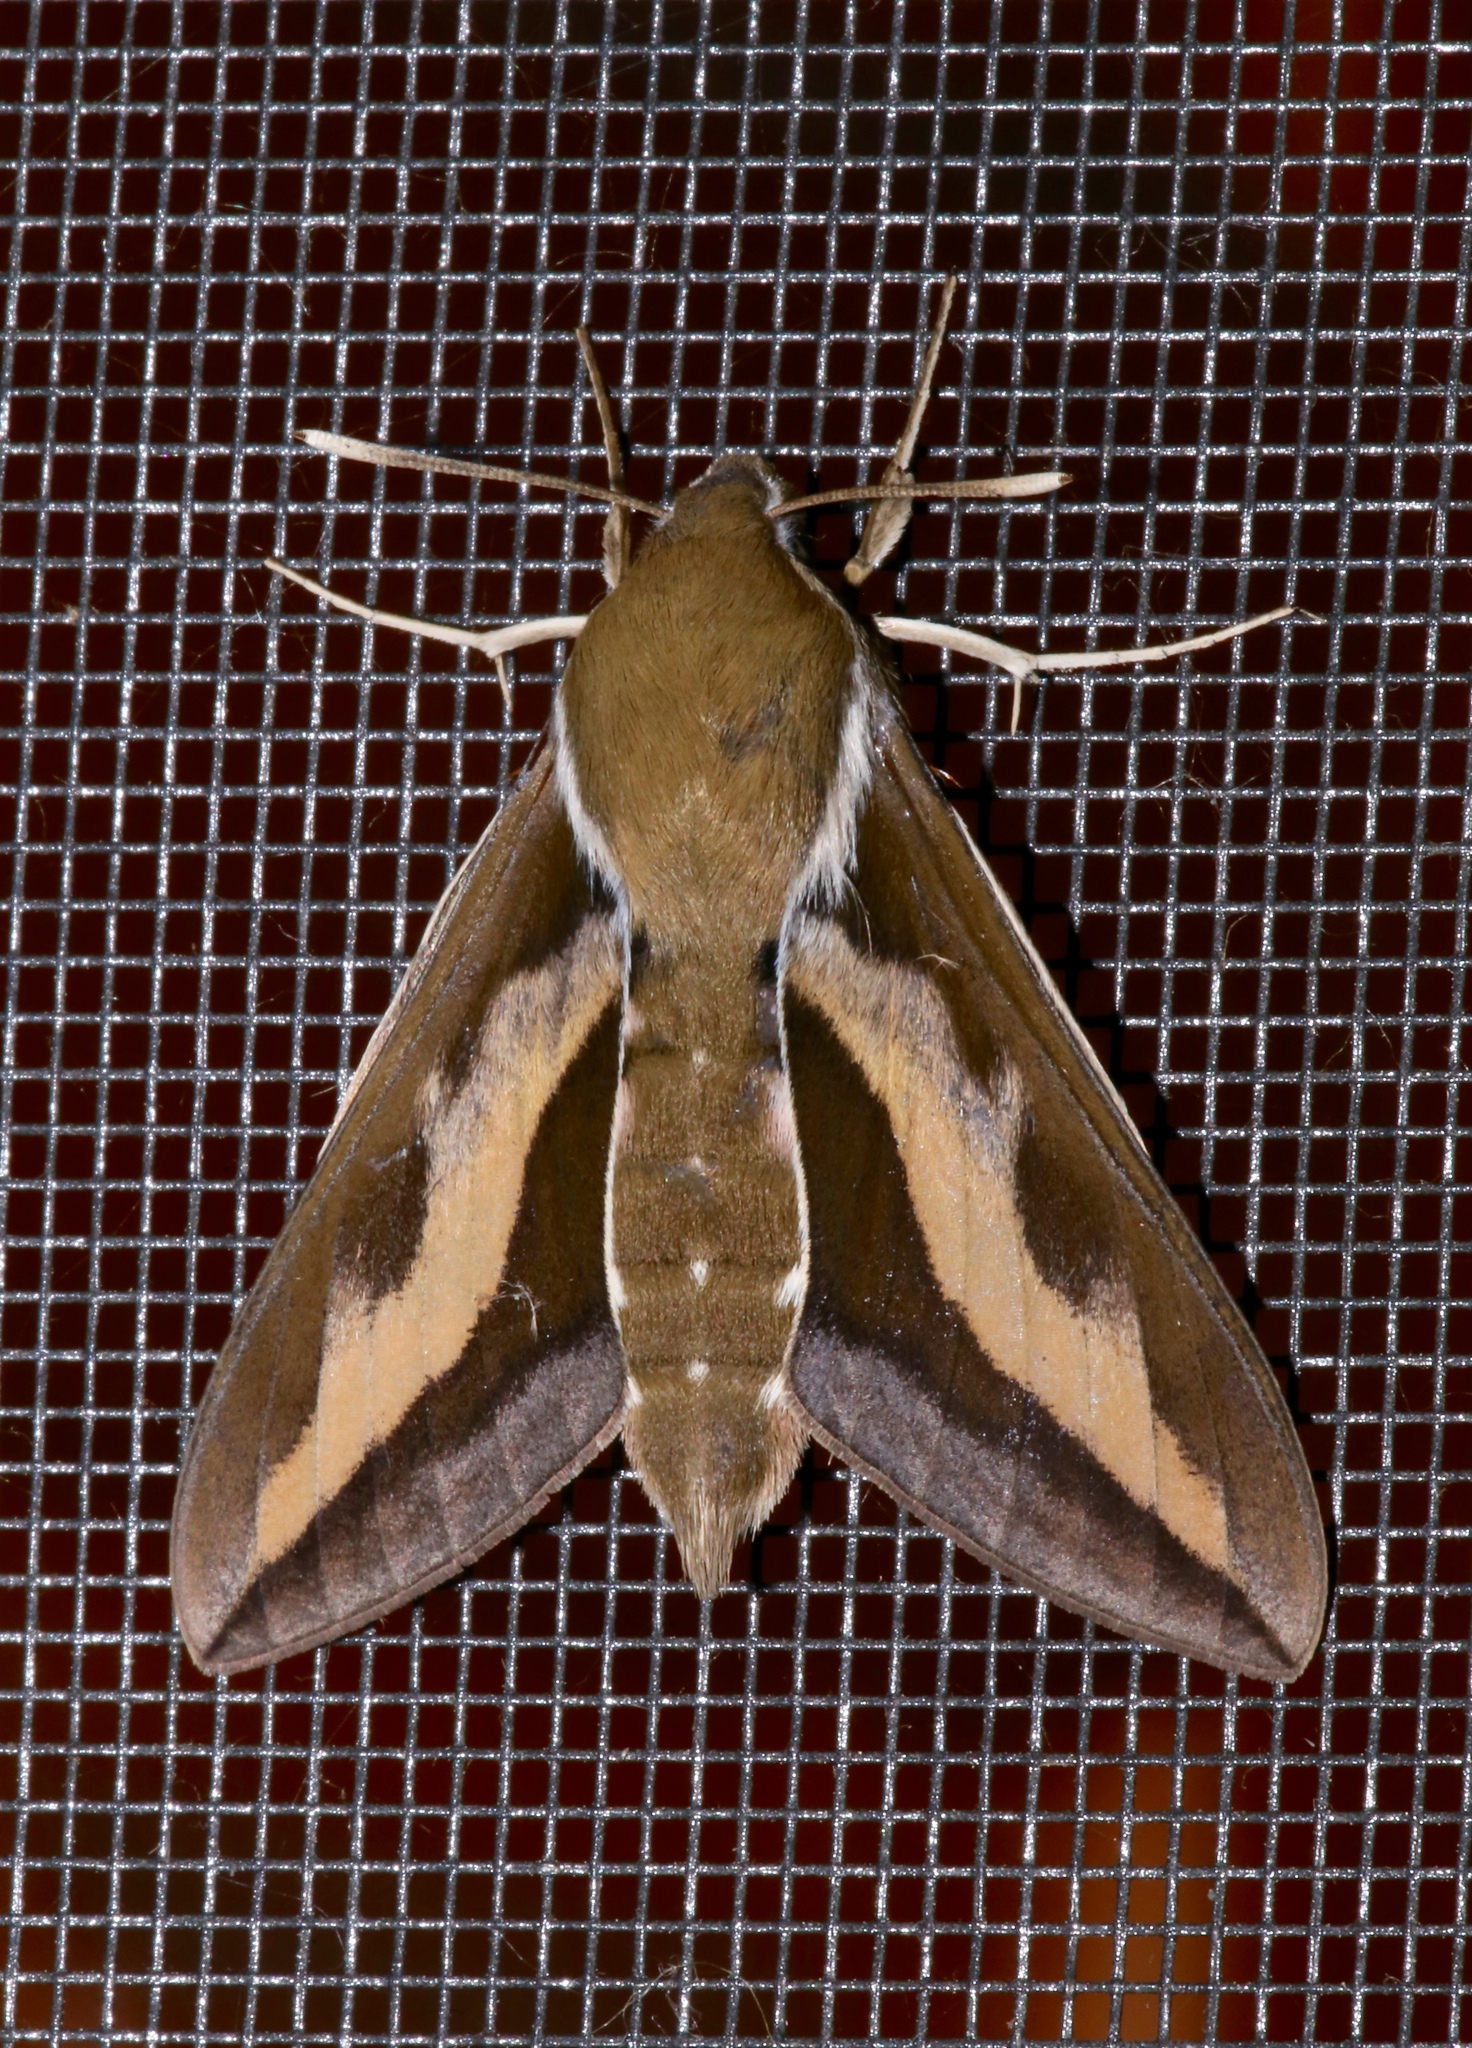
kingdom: Animalia
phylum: Arthropoda
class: Insecta
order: Lepidoptera
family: Sphingidae
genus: Hyles
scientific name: Hyles gallii
